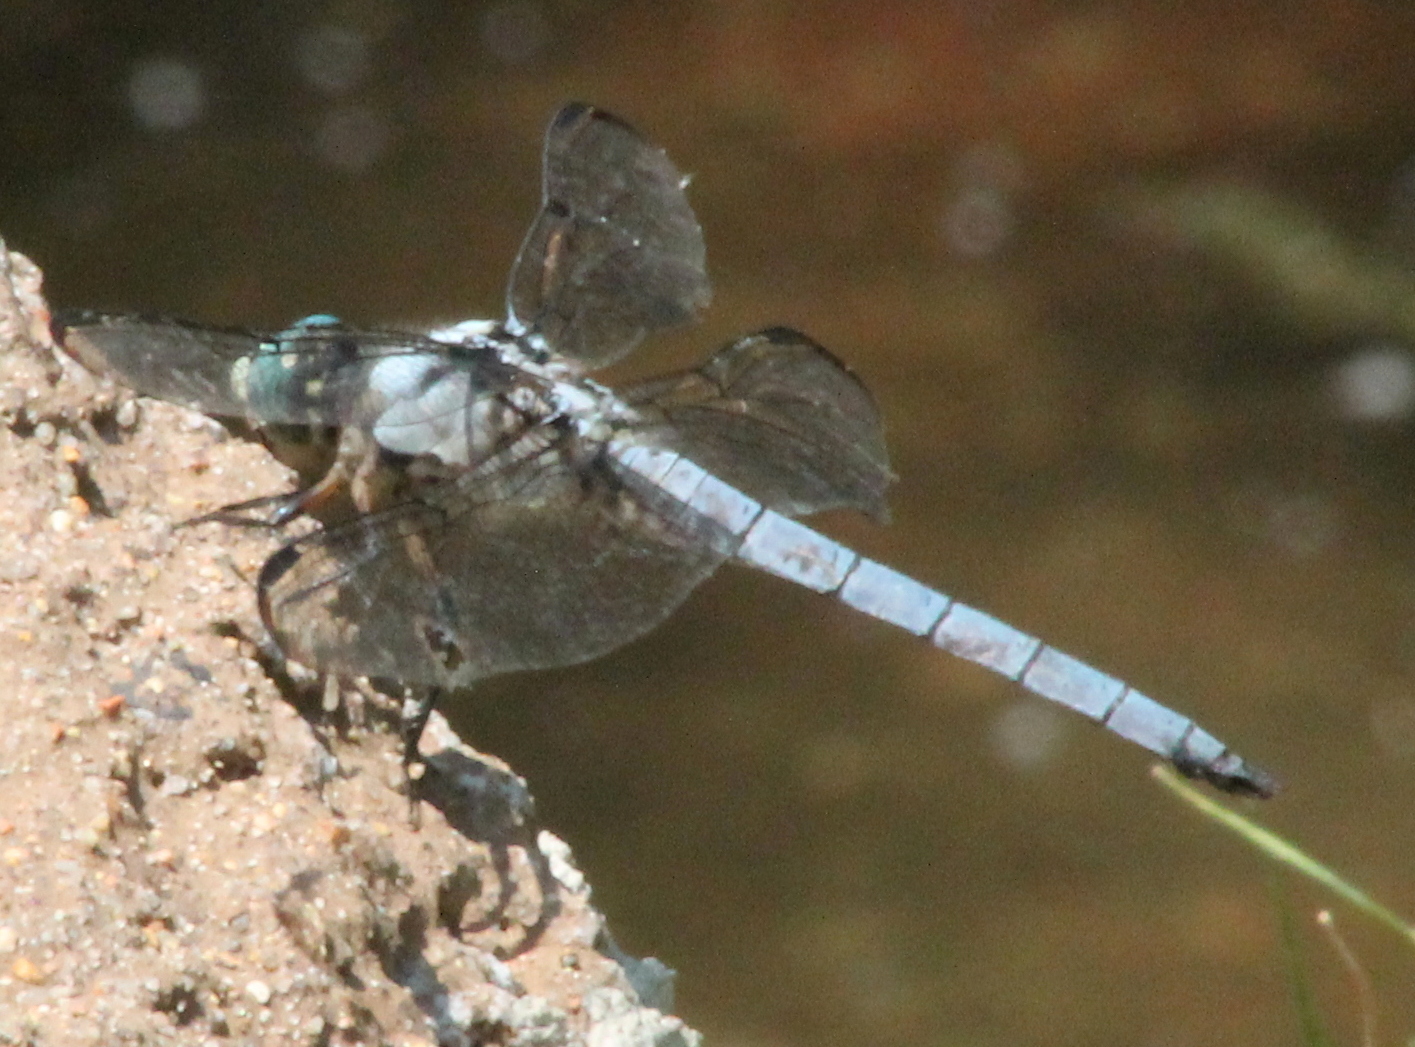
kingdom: Animalia
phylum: Arthropoda
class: Insecta
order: Odonata
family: Libellulidae
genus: Libellula
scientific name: Libellula vibrans
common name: Great blue skimmer
